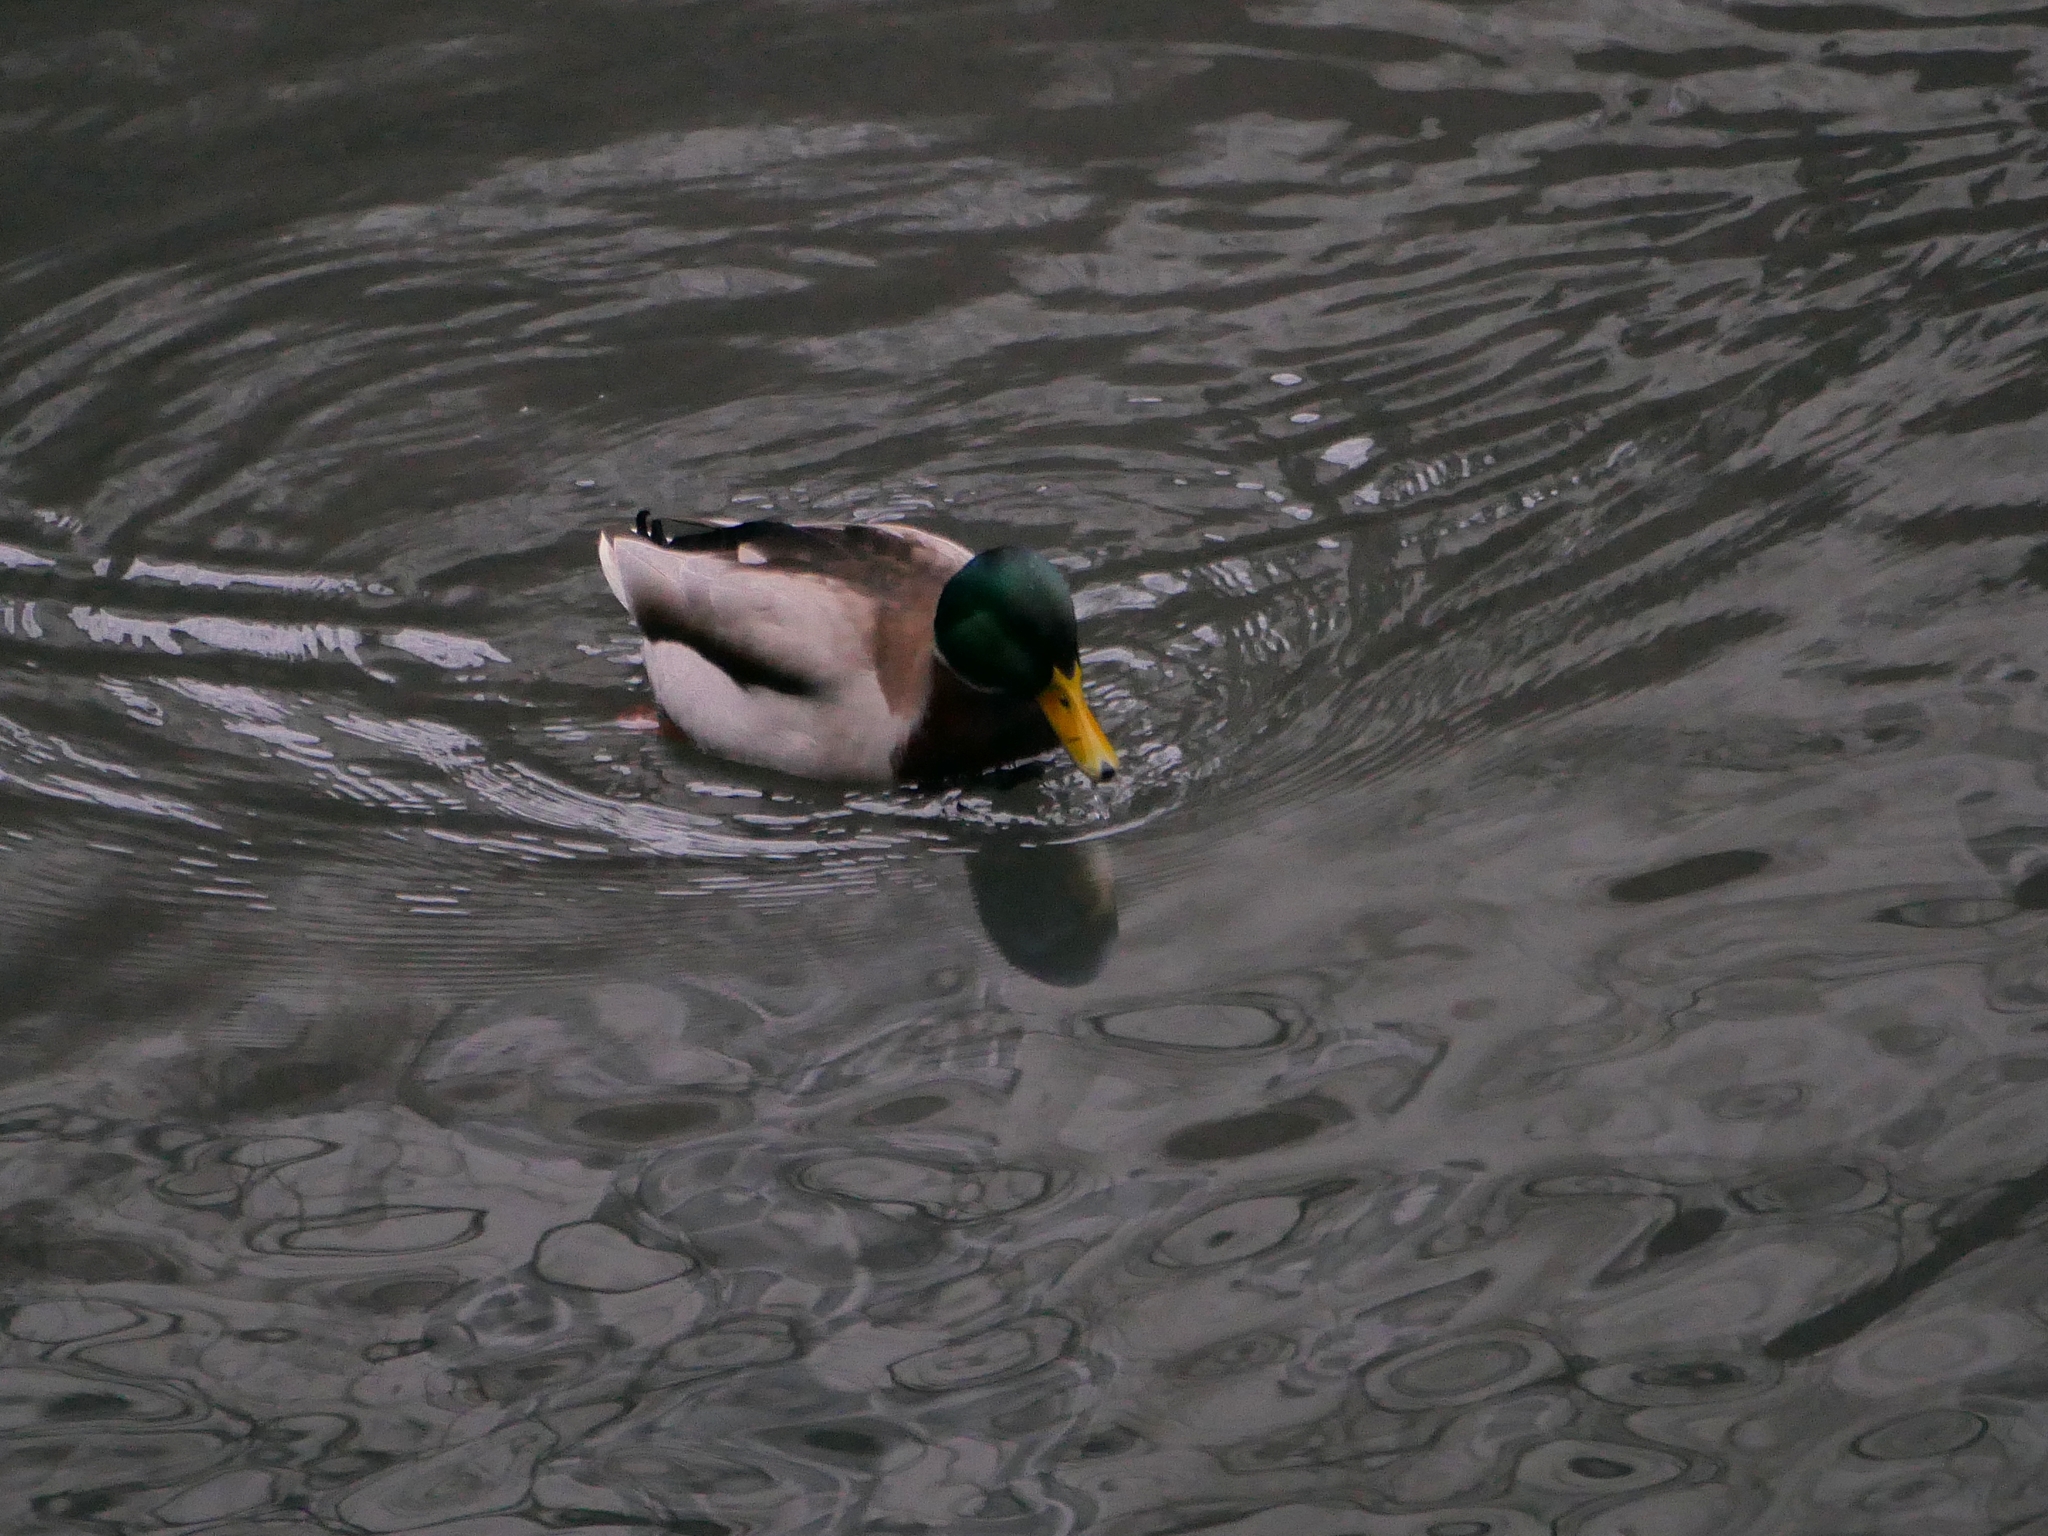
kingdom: Animalia
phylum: Chordata
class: Aves
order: Anseriformes
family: Anatidae
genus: Anas
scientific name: Anas platyrhynchos
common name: Mallard
